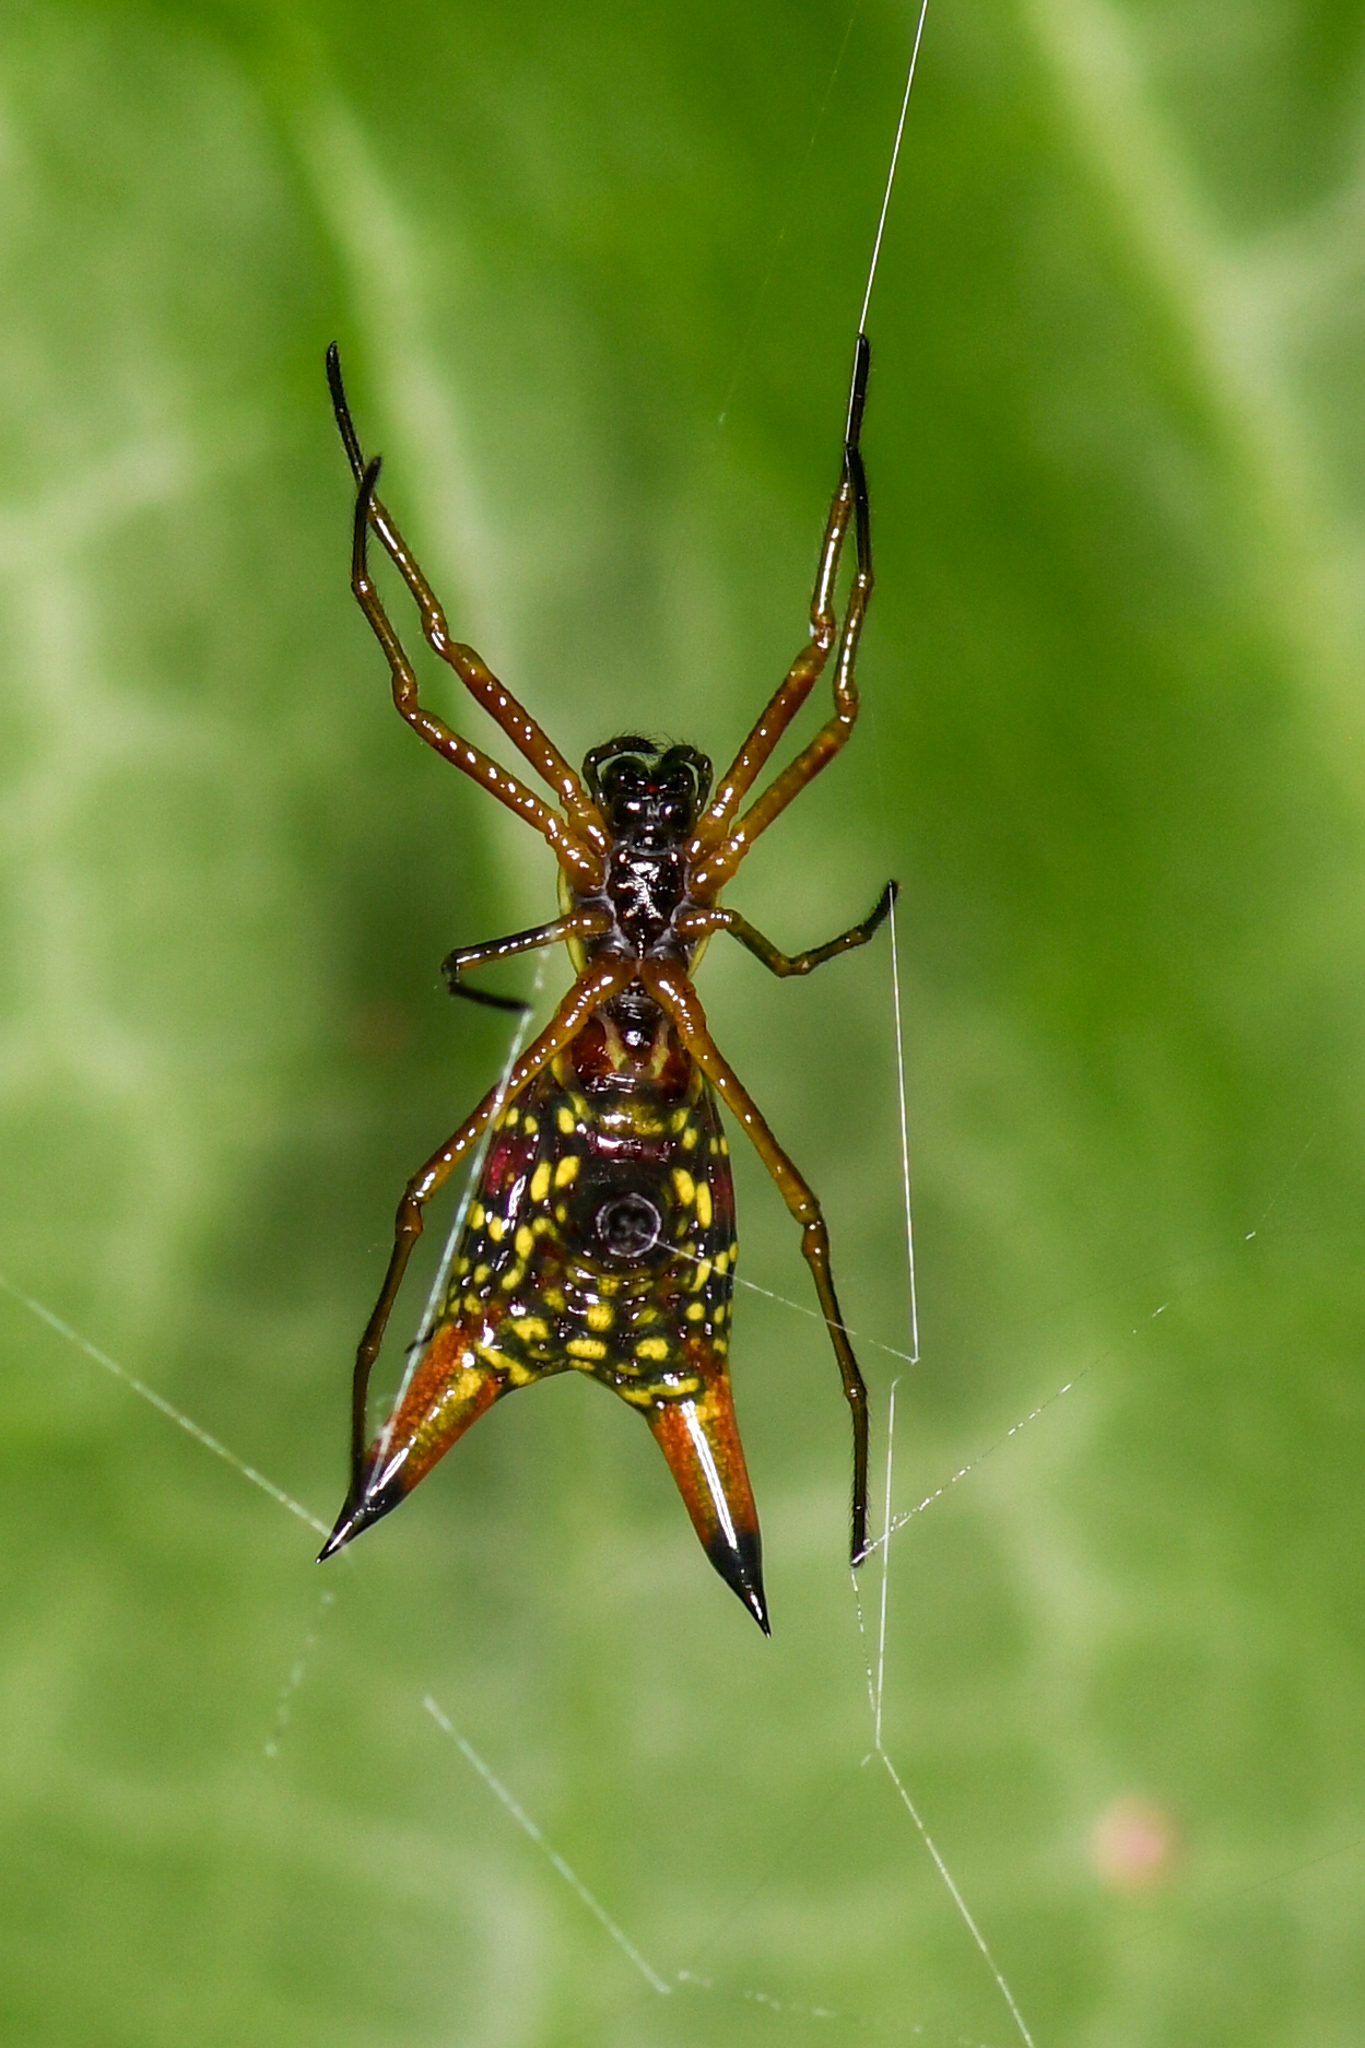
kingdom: Animalia
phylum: Arthropoda
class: Arachnida
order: Araneae
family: Araneidae
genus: Micrathena
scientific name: Micrathena sexspinosa
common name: Orb weavers
